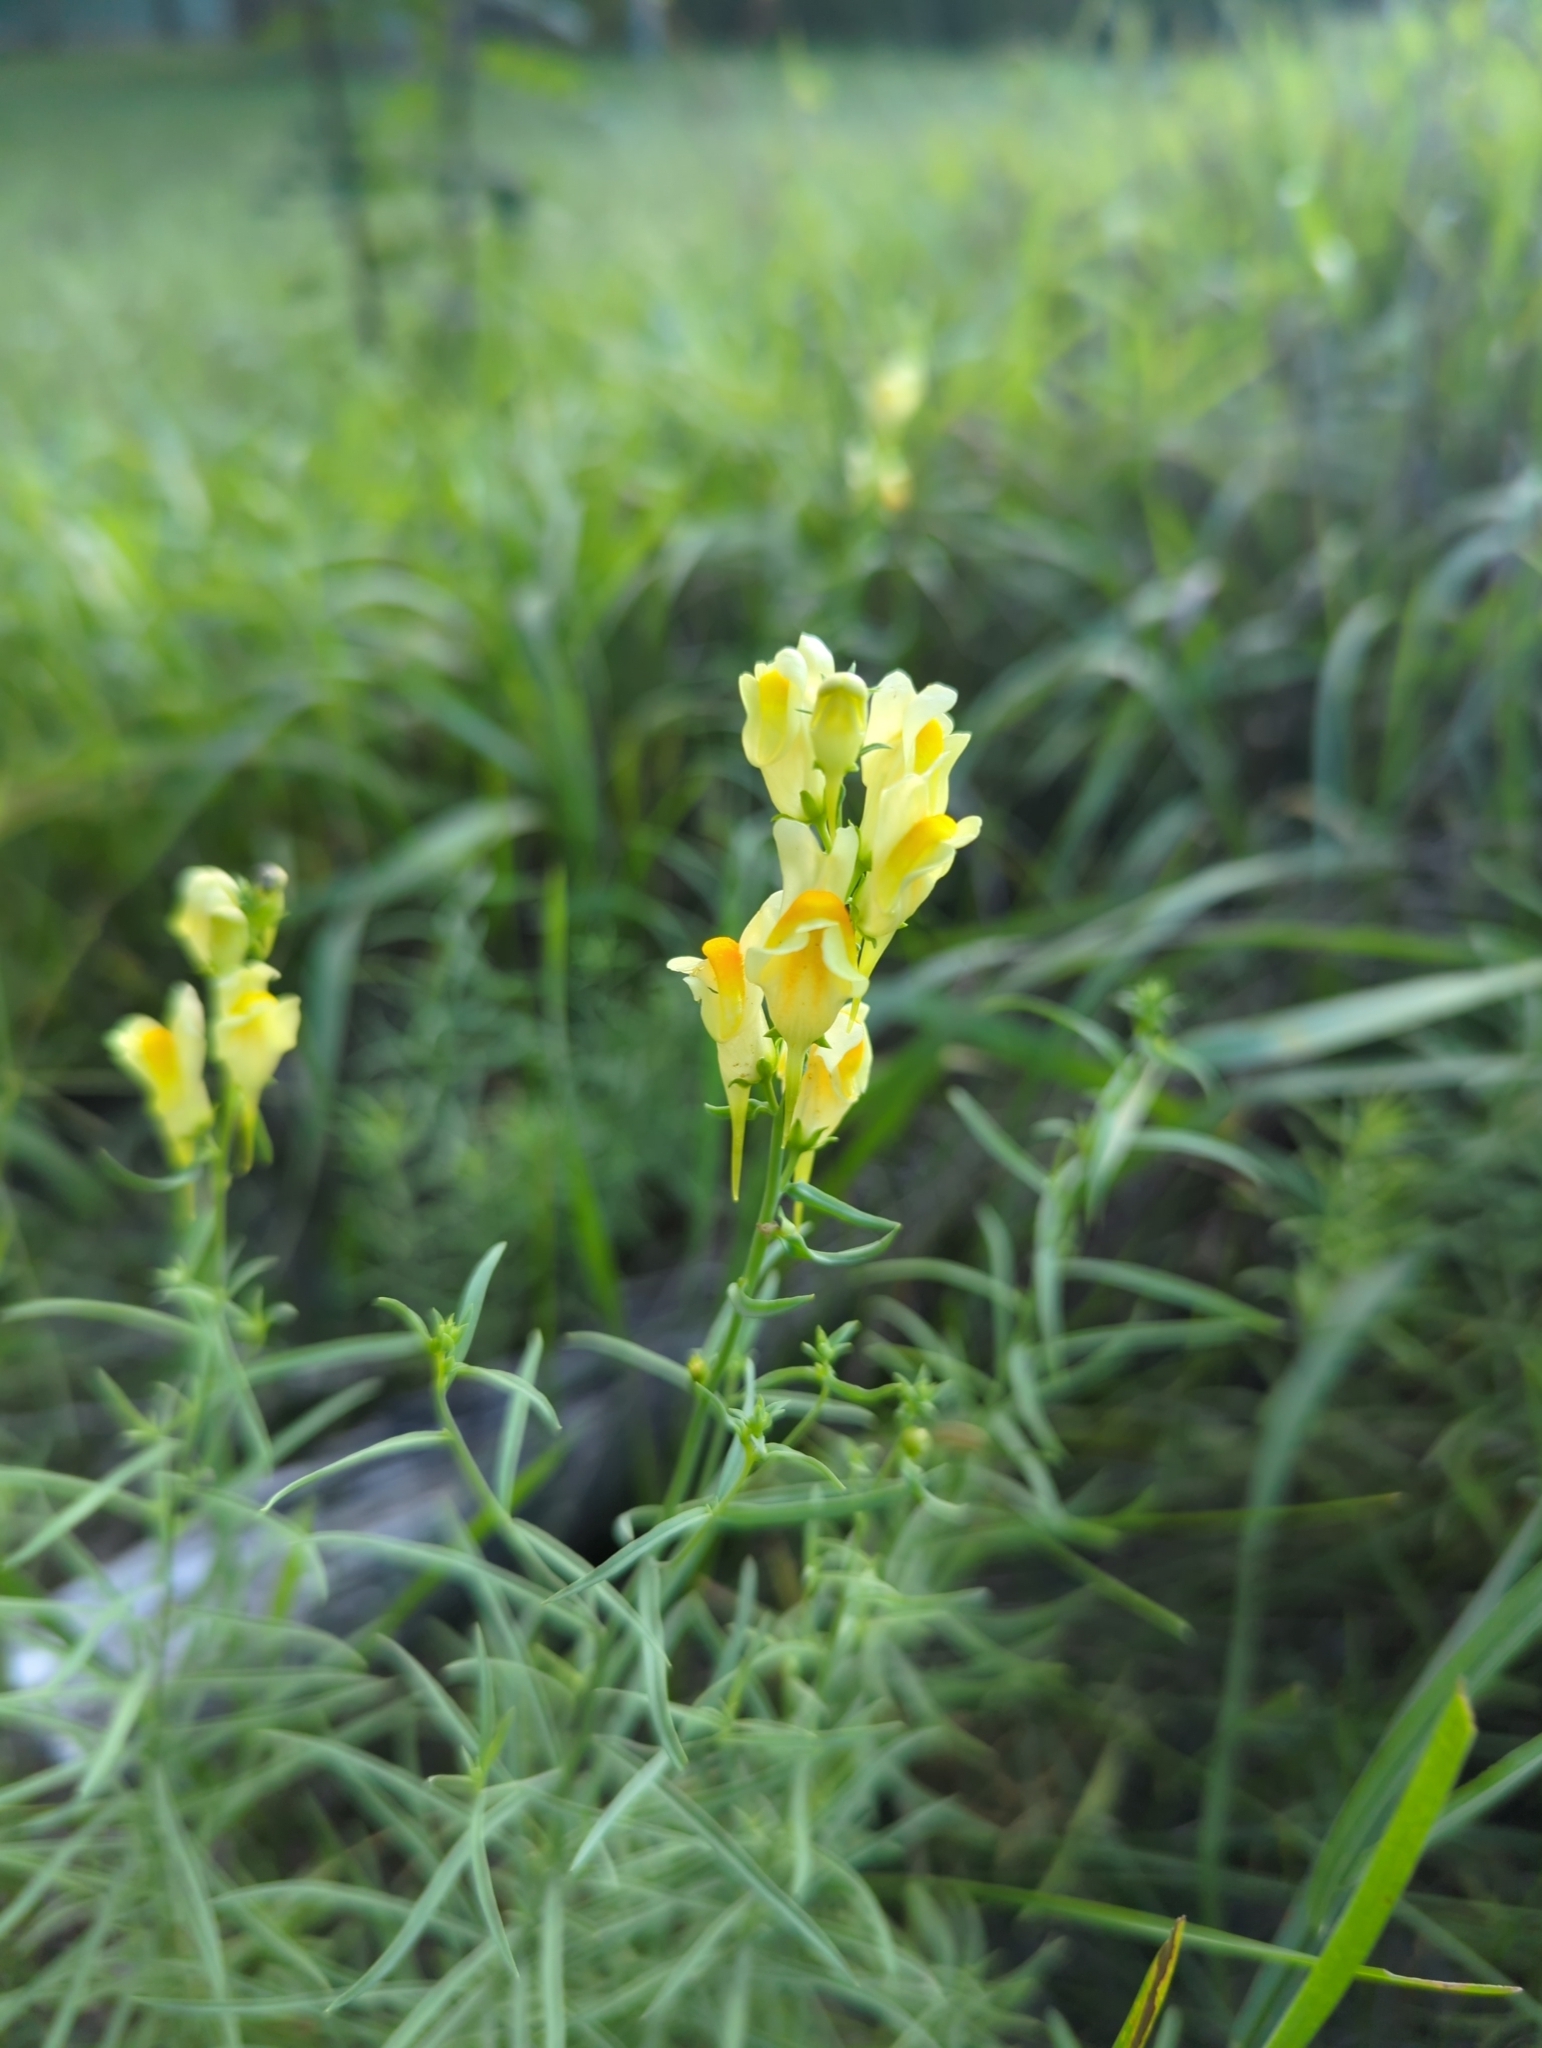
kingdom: Plantae
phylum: Tracheophyta
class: Magnoliopsida
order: Lamiales
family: Plantaginaceae
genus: Linaria
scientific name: Linaria vulgaris
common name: Butter and eggs
